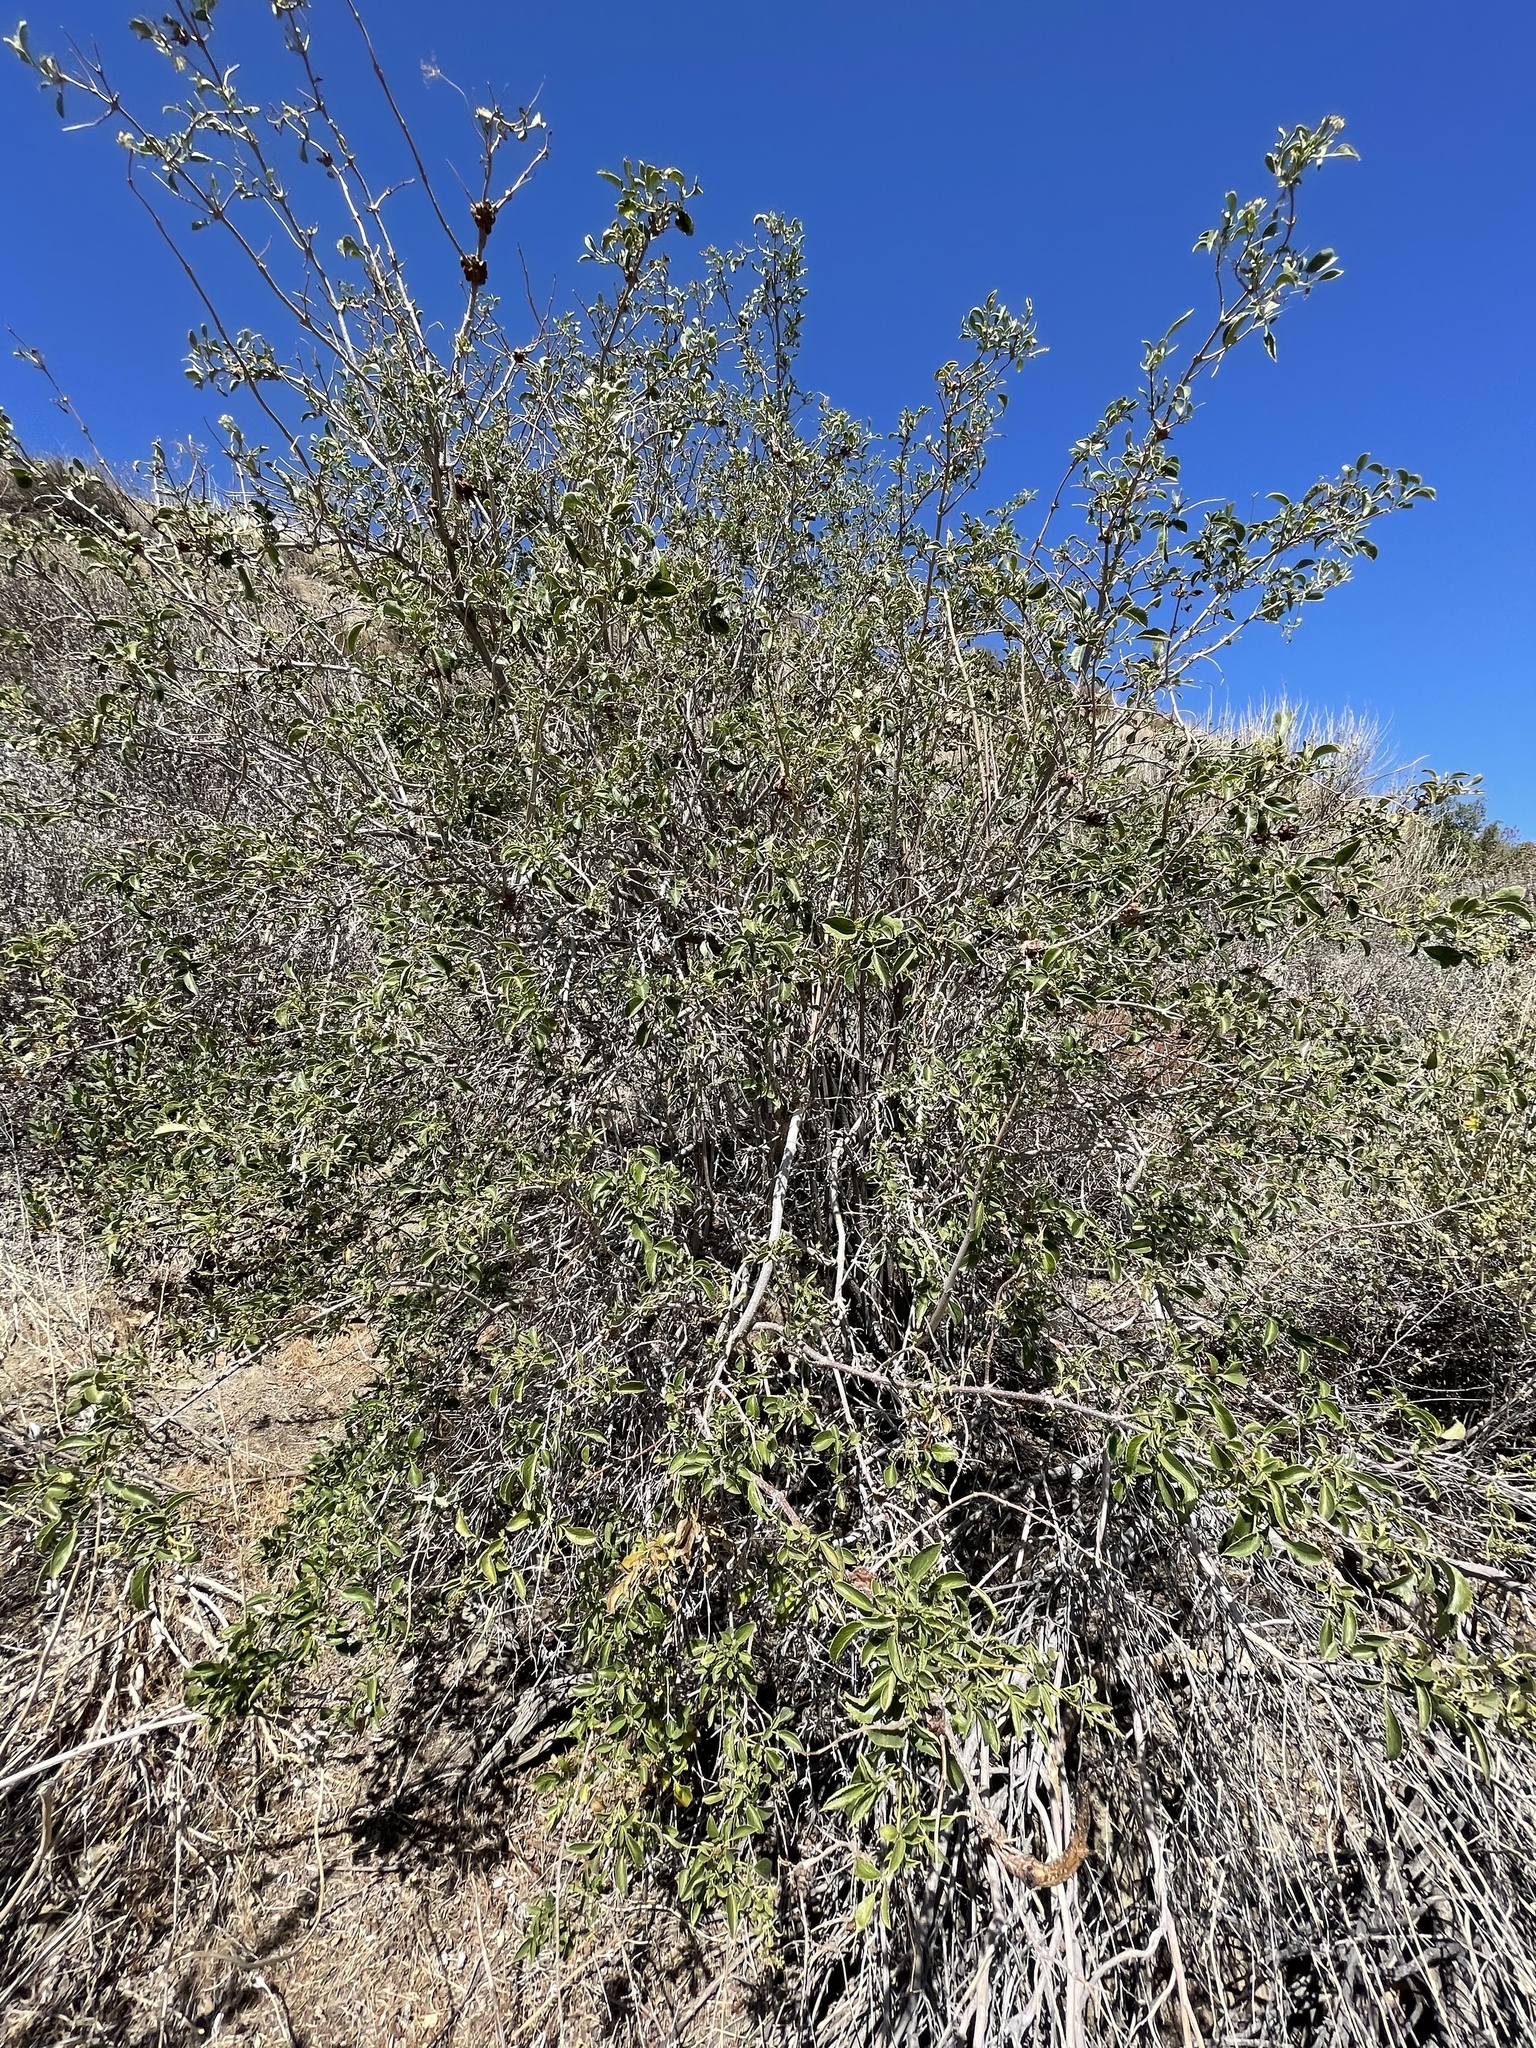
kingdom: Plantae
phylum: Tracheophyta
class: Magnoliopsida
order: Dipsacales
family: Viburnaceae
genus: Sambucus
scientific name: Sambucus cerulea
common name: Blue elder
